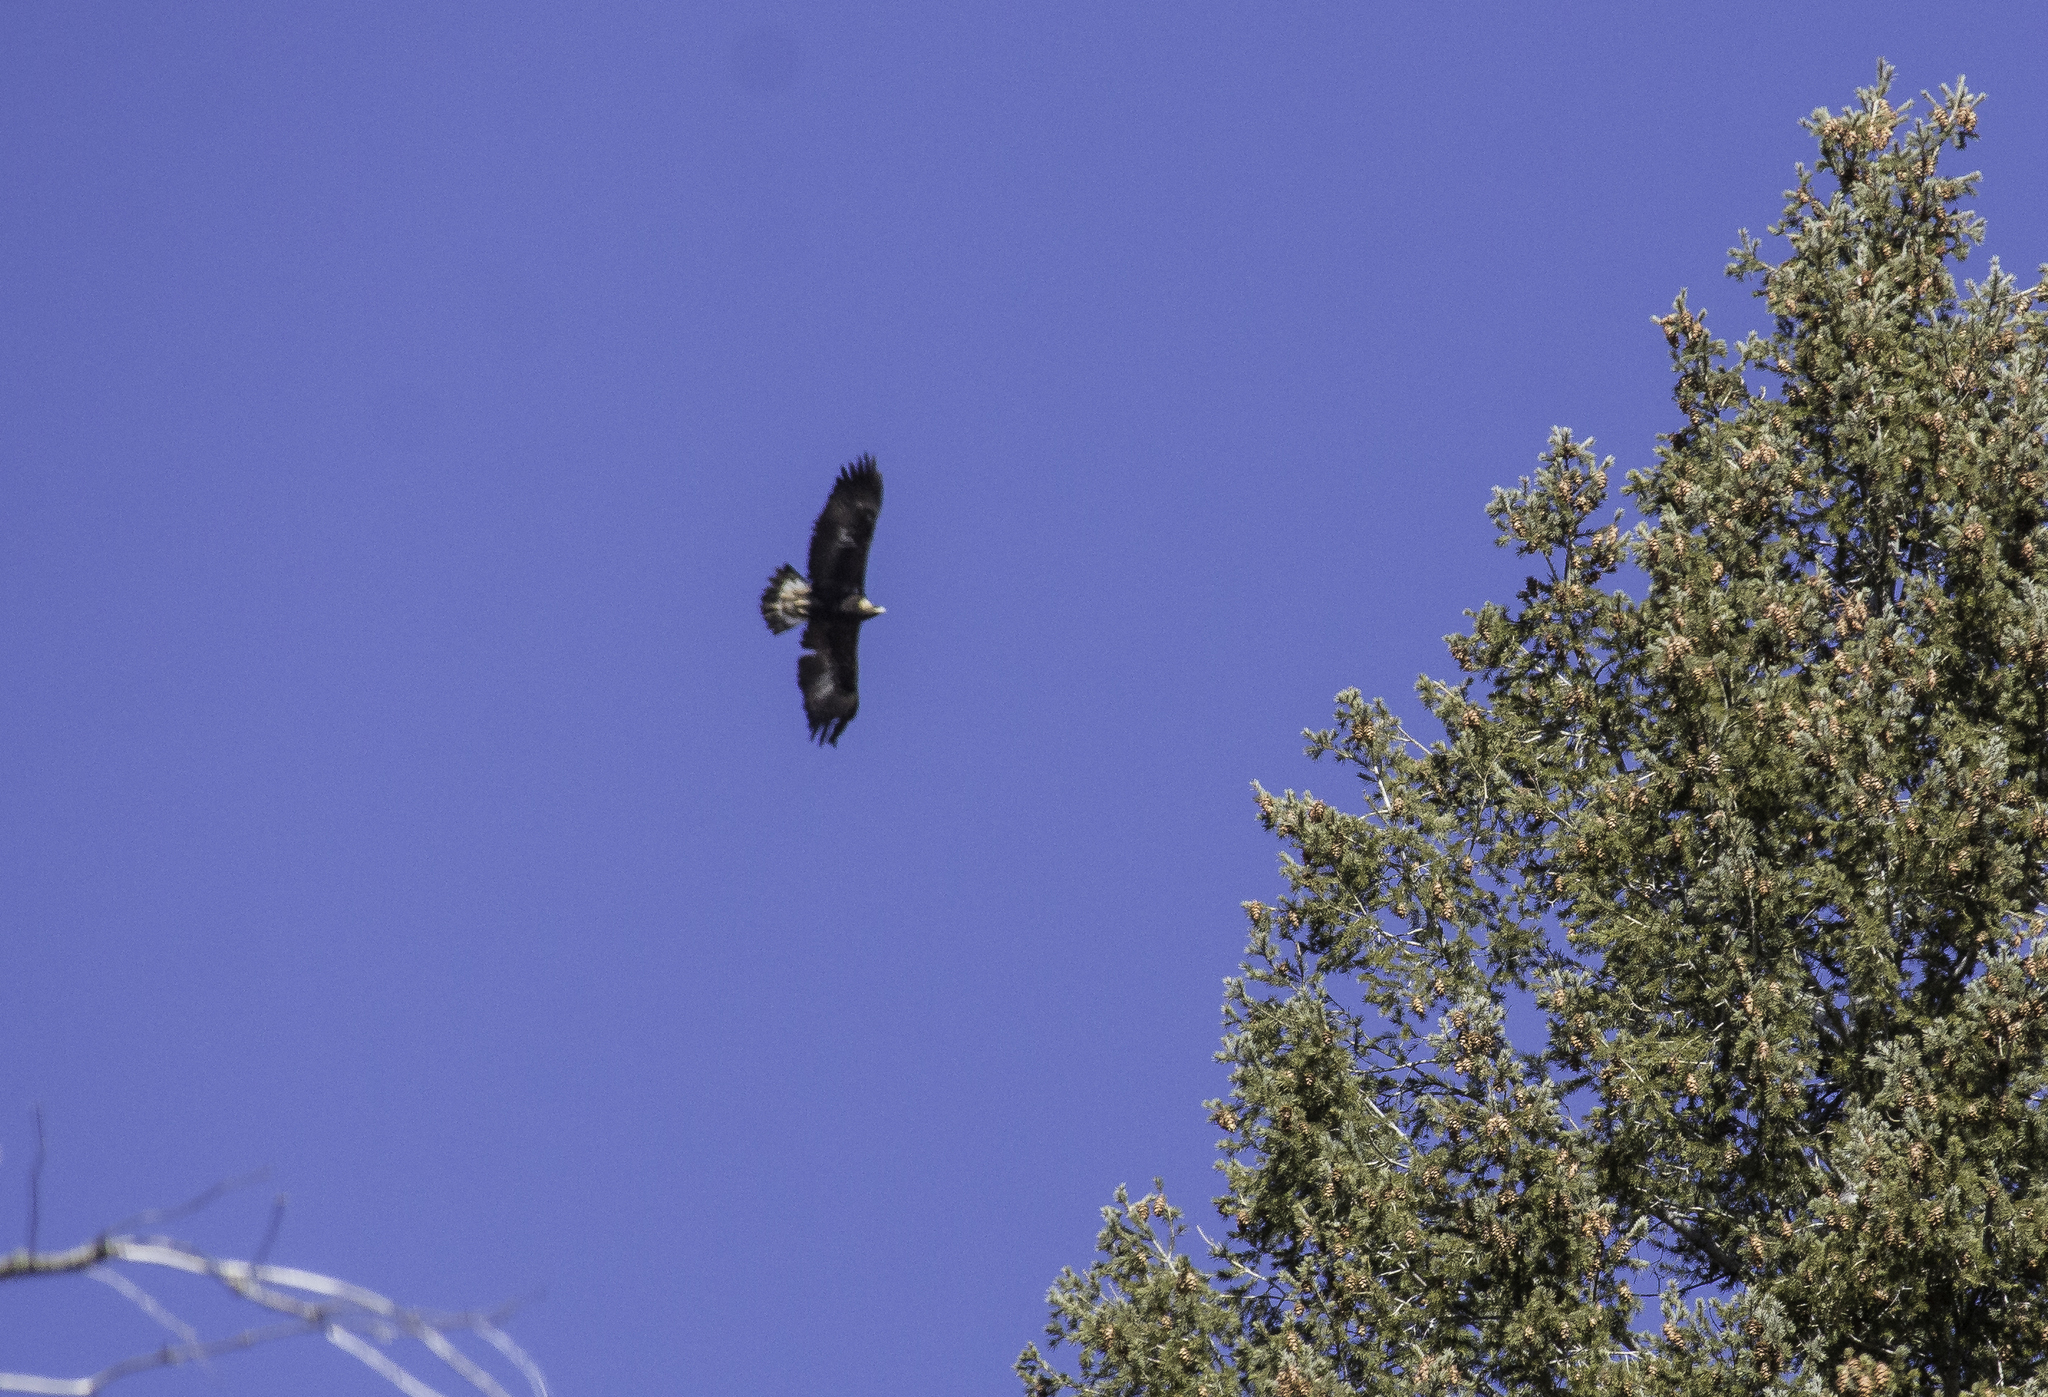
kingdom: Animalia
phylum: Chordata
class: Aves
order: Accipitriformes
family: Accipitridae
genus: Aquila
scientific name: Aquila chrysaetos
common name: Golden eagle
